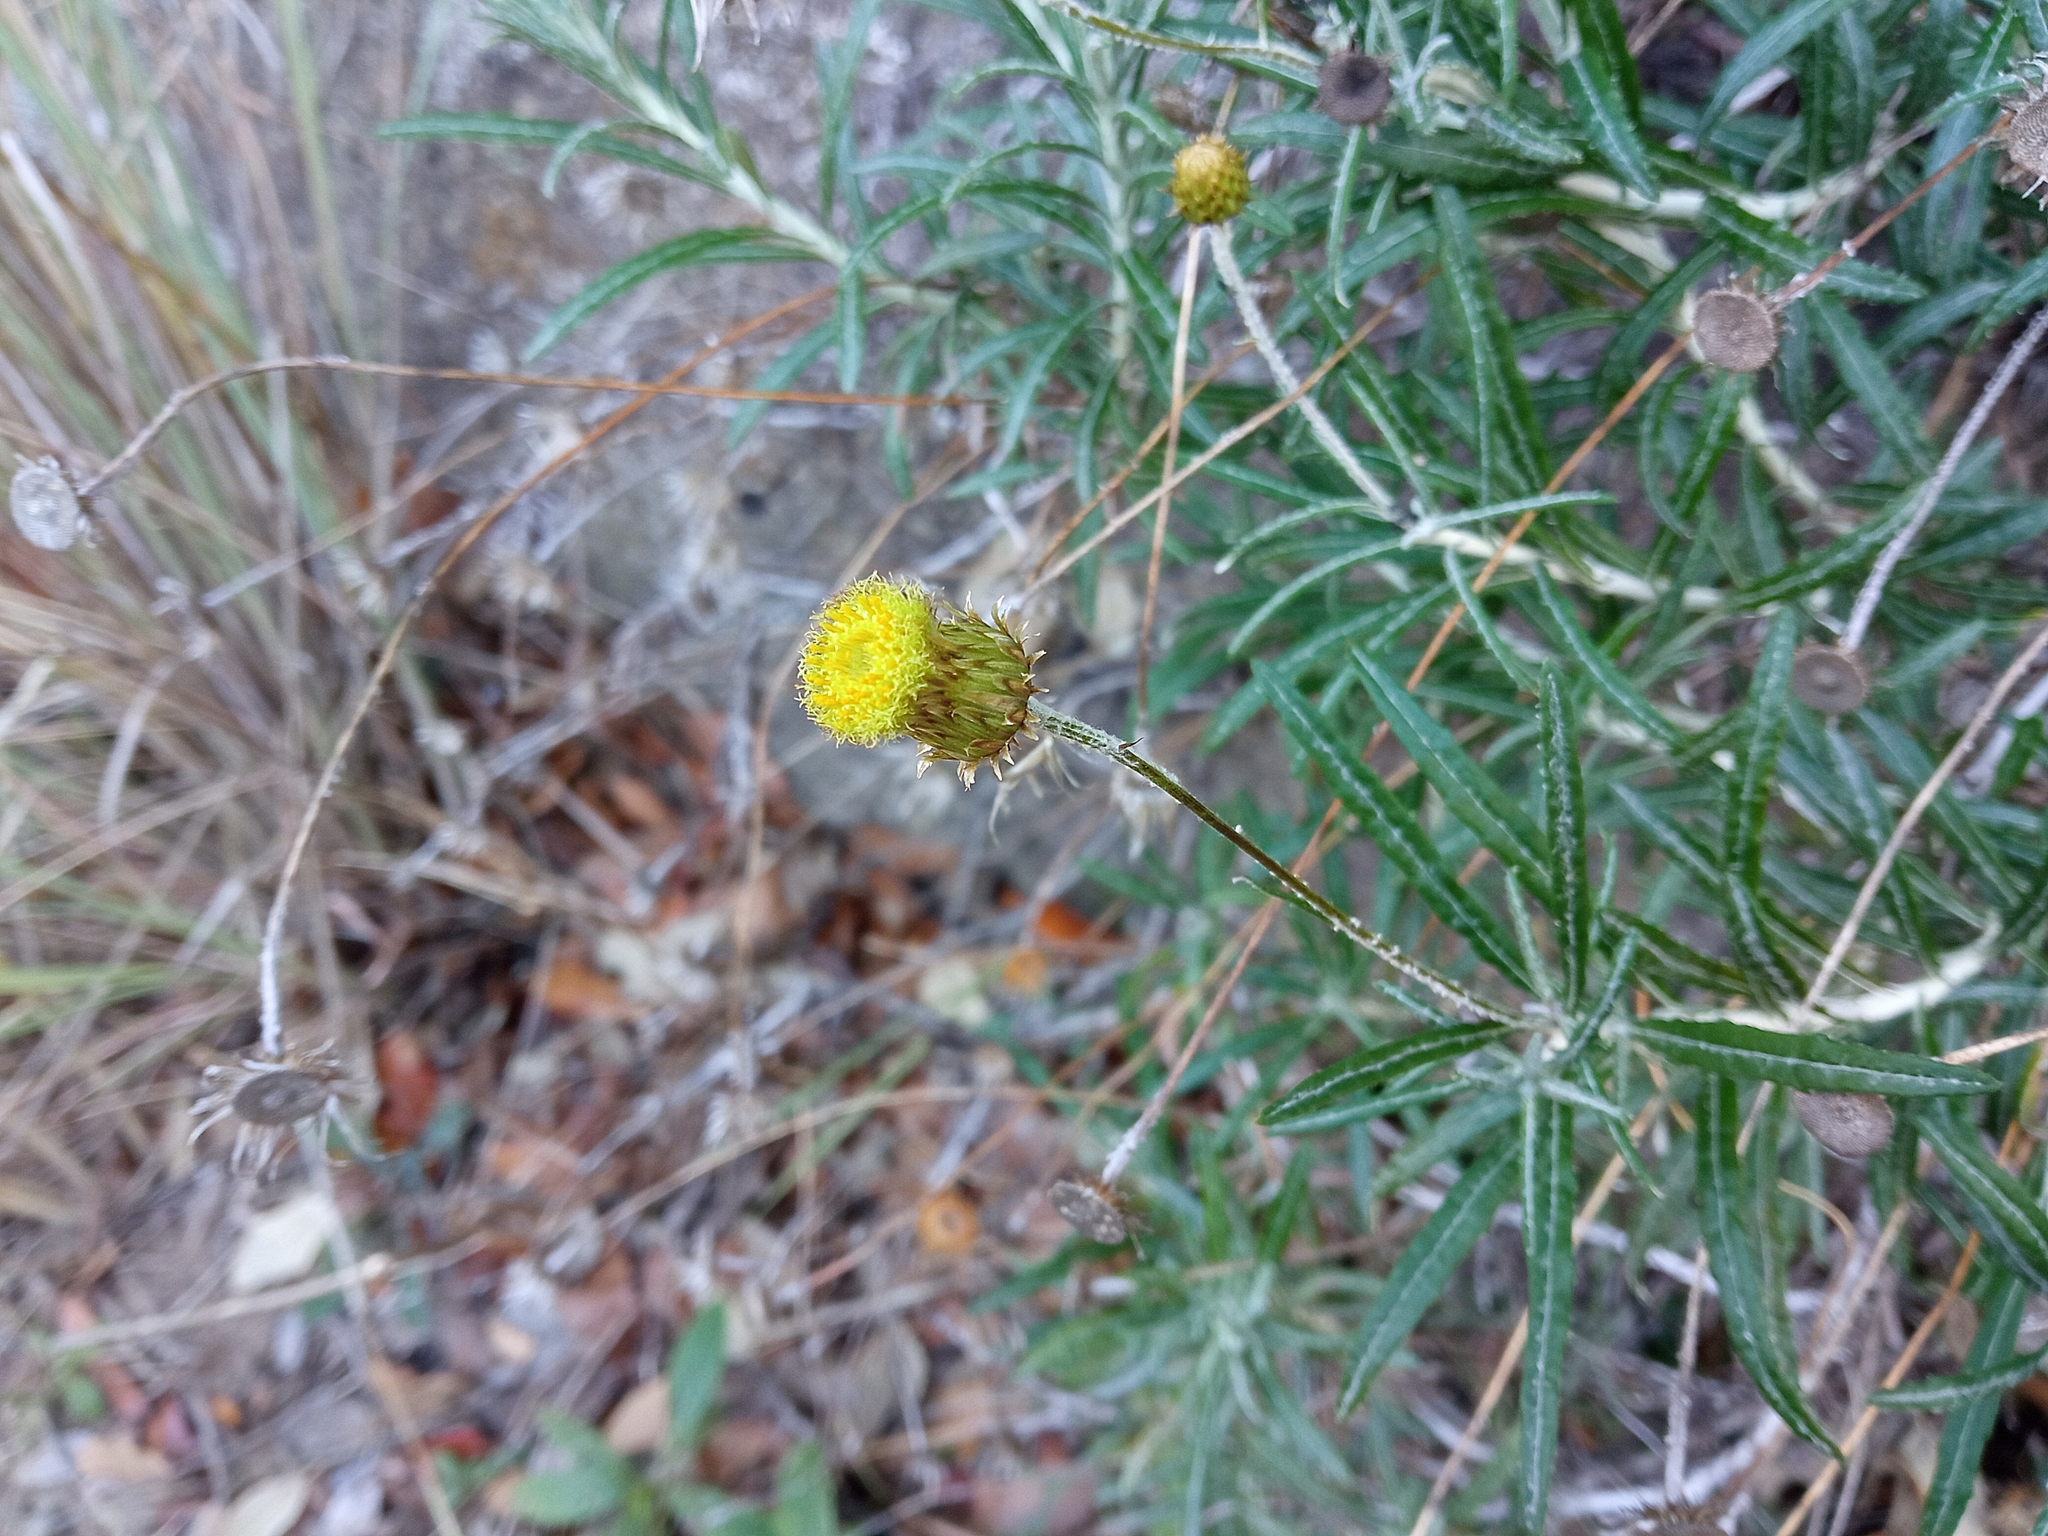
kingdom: Plantae
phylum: Tracheophyta
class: Magnoliopsida
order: Asterales
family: Asteraceae
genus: Phagnalon
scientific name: Phagnalon saxatile
